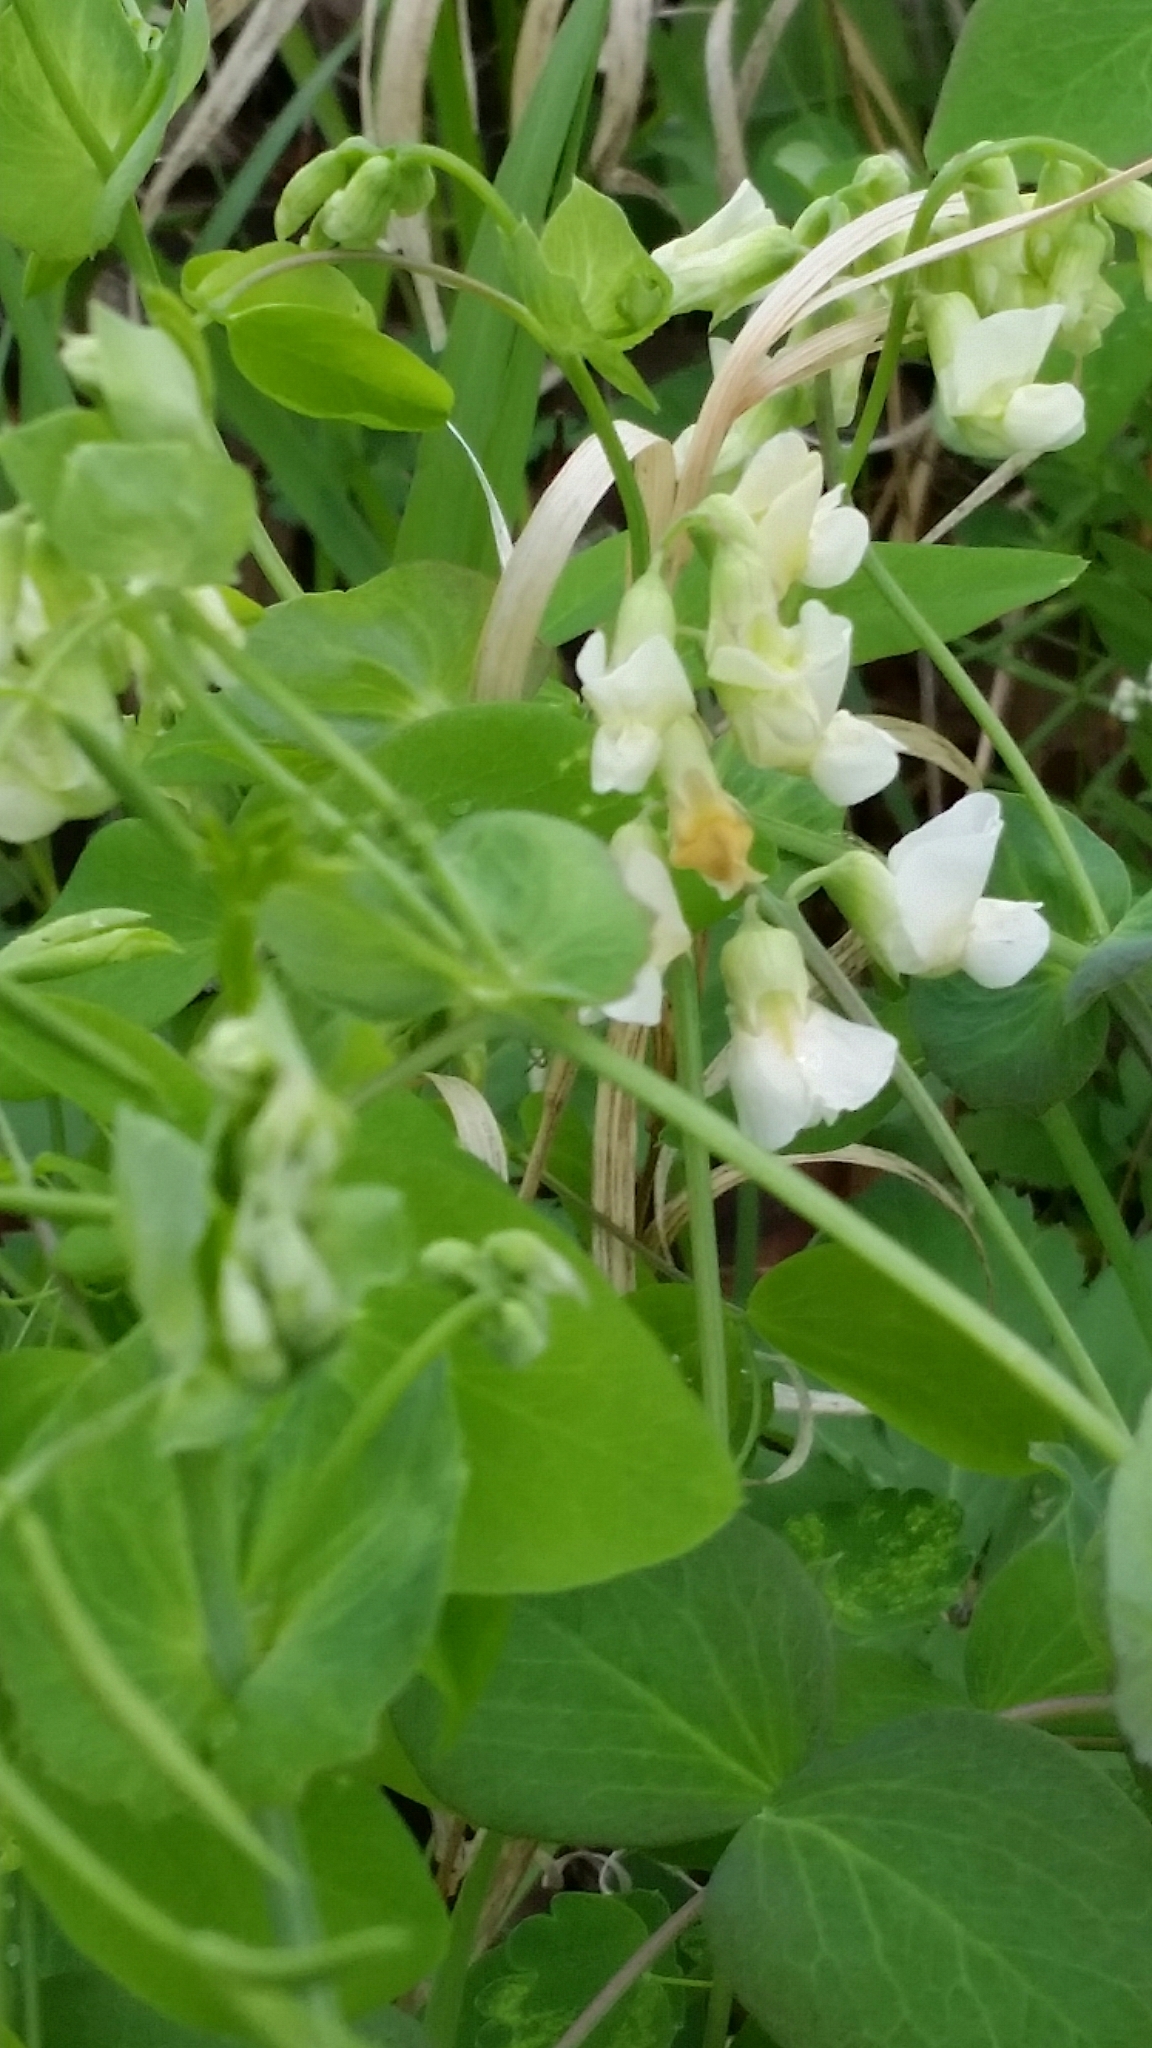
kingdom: Plantae
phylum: Tracheophyta
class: Magnoliopsida
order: Fabales
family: Fabaceae
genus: Lathyrus
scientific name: Lathyrus ochroleucus
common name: Pale vetchling
